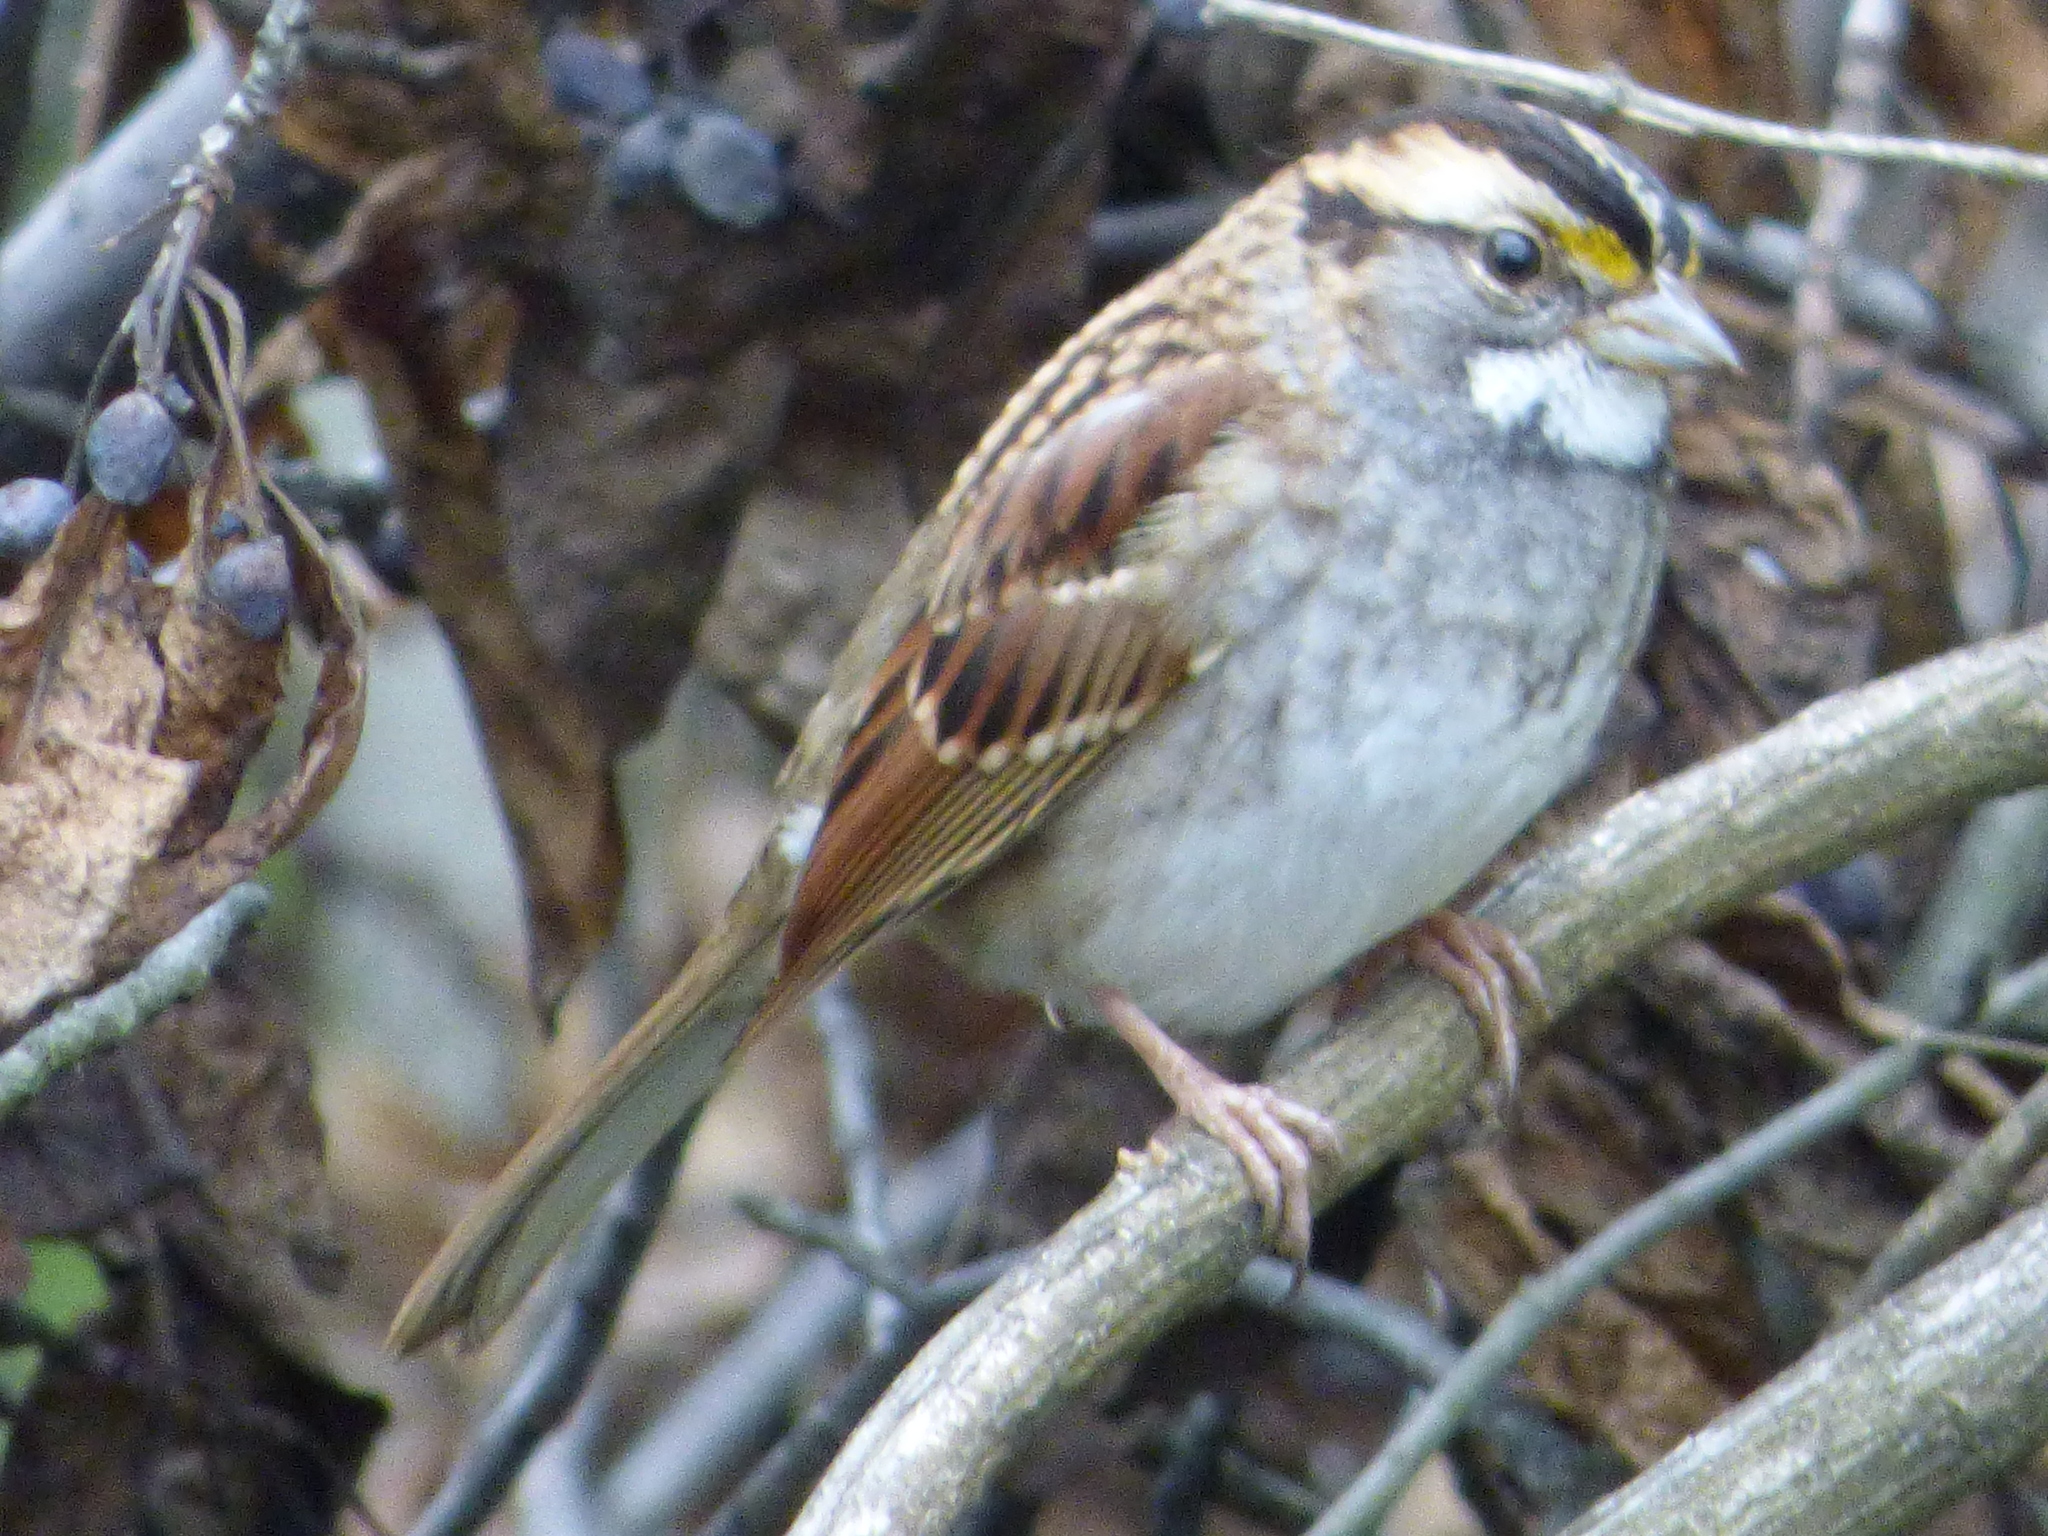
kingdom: Animalia
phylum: Chordata
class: Aves
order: Passeriformes
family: Passerellidae
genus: Zonotrichia
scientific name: Zonotrichia albicollis
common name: White-throated sparrow
